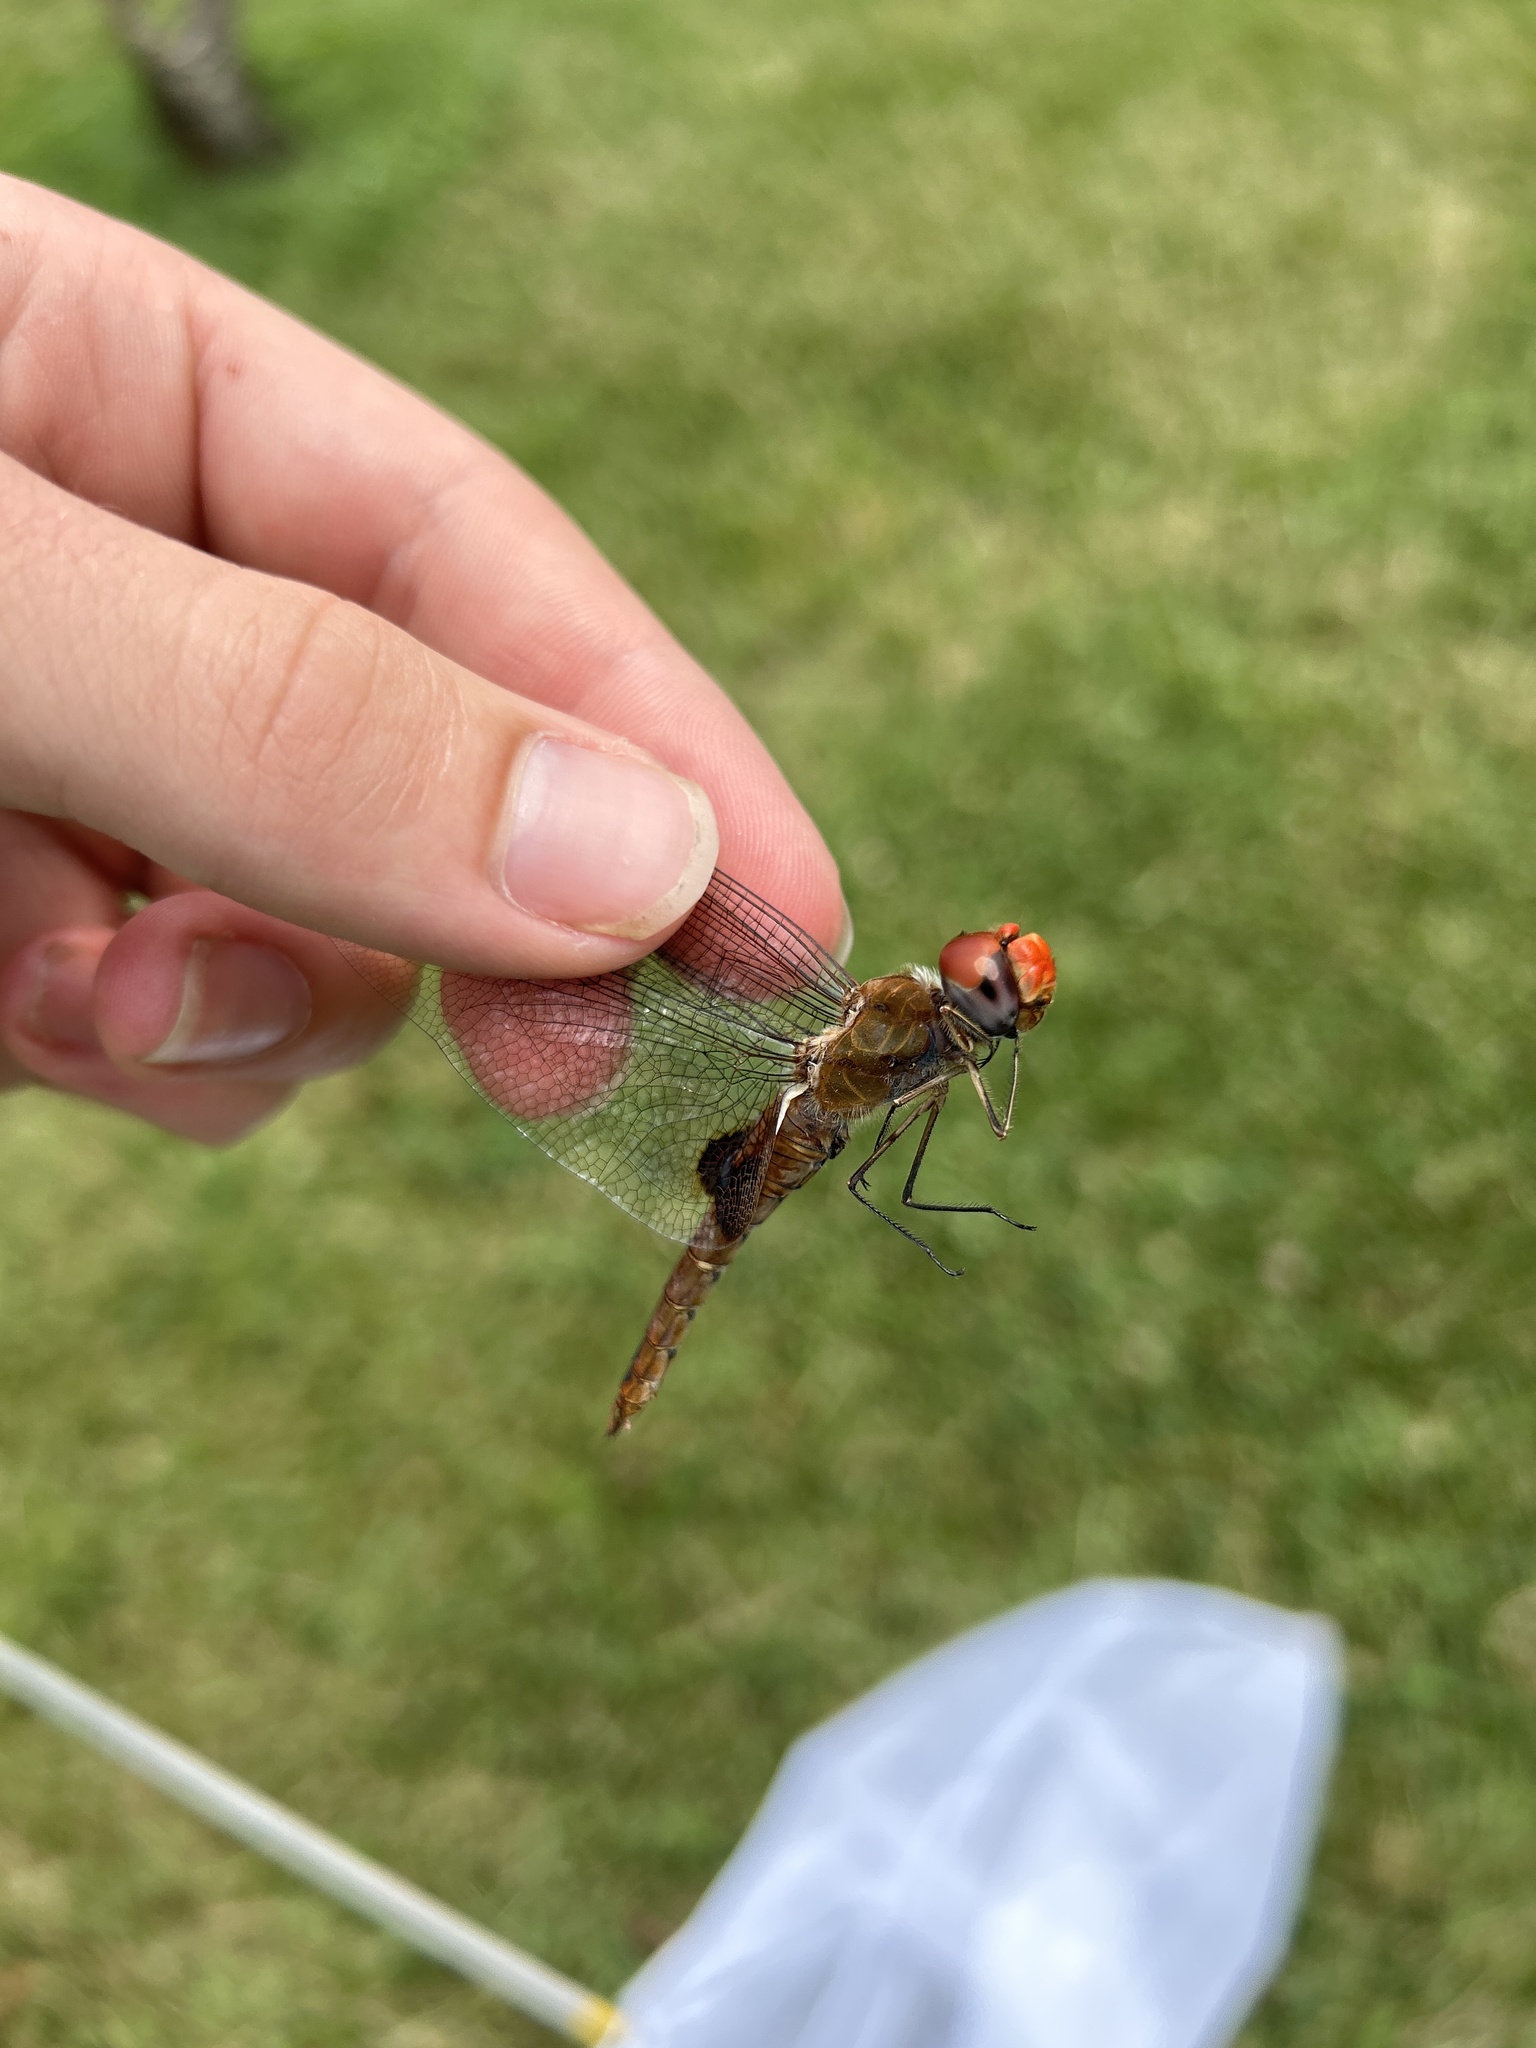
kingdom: Animalia
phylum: Arthropoda
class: Insecta
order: Odonata
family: Libellulidae
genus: Pantala
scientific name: Pantala hymenaea
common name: Spot-winged glider
